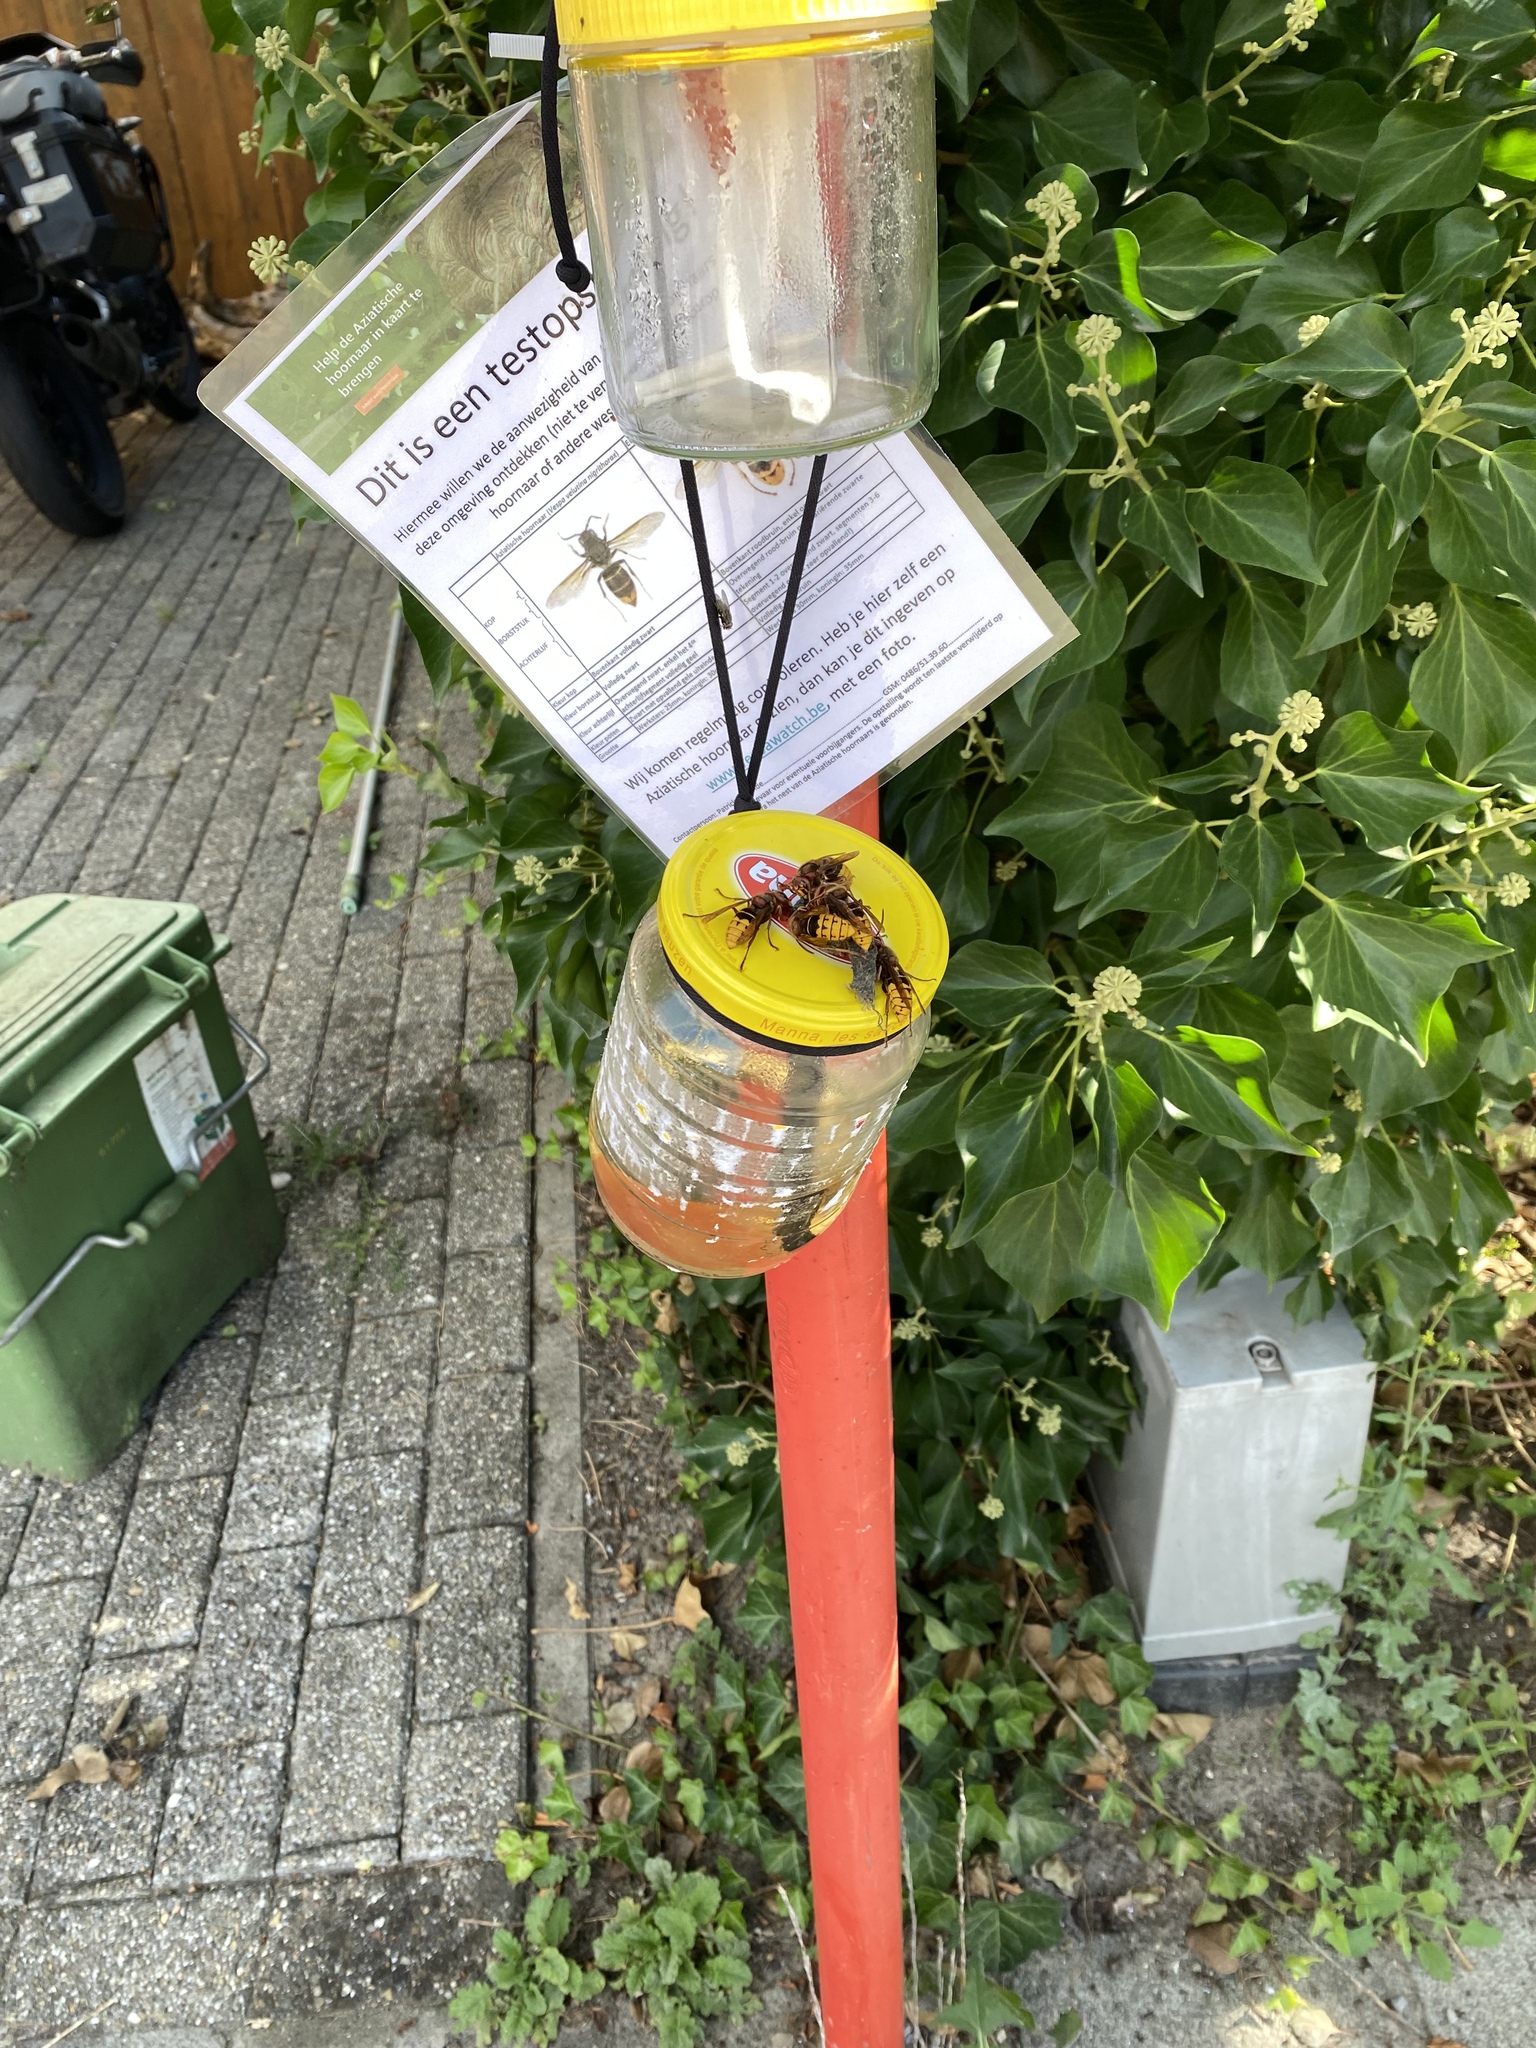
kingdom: Animalia
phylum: Arthropoda
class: Insecta
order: Hymenoptera
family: Vespidae
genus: Vespa
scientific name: Vespa crabro
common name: Hornet
